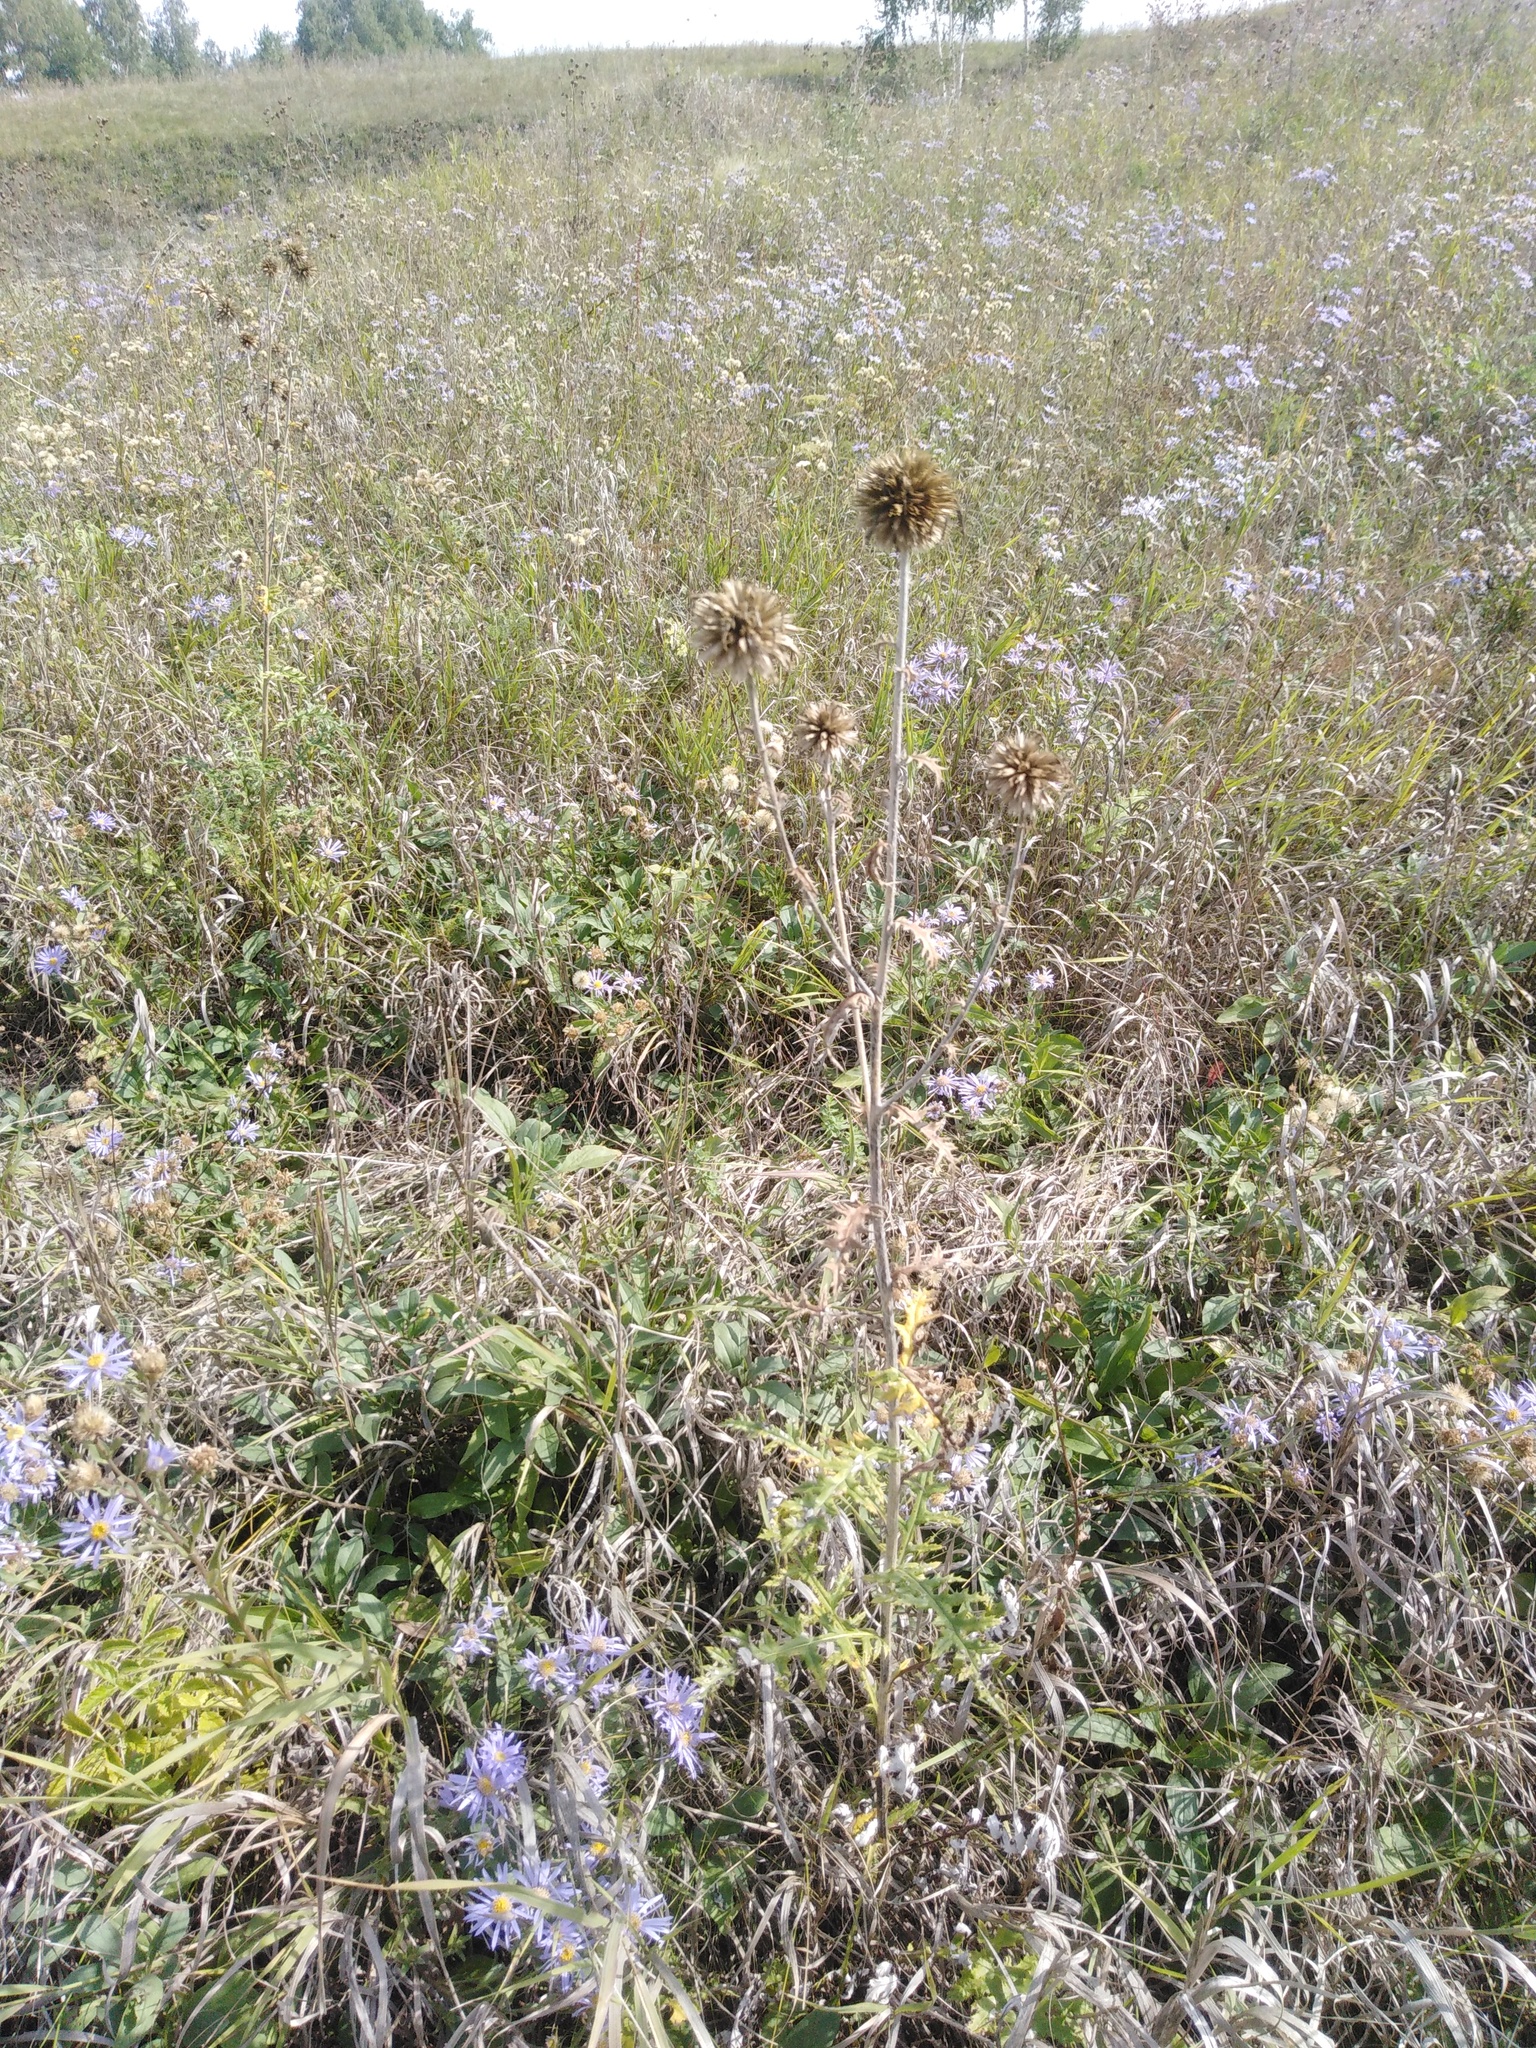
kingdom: Plantae
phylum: Tracheophyta
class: Magnoliopsida
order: Asterales
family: Asteraceae
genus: Echinops
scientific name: Echinops ritro
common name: Globe thistle
